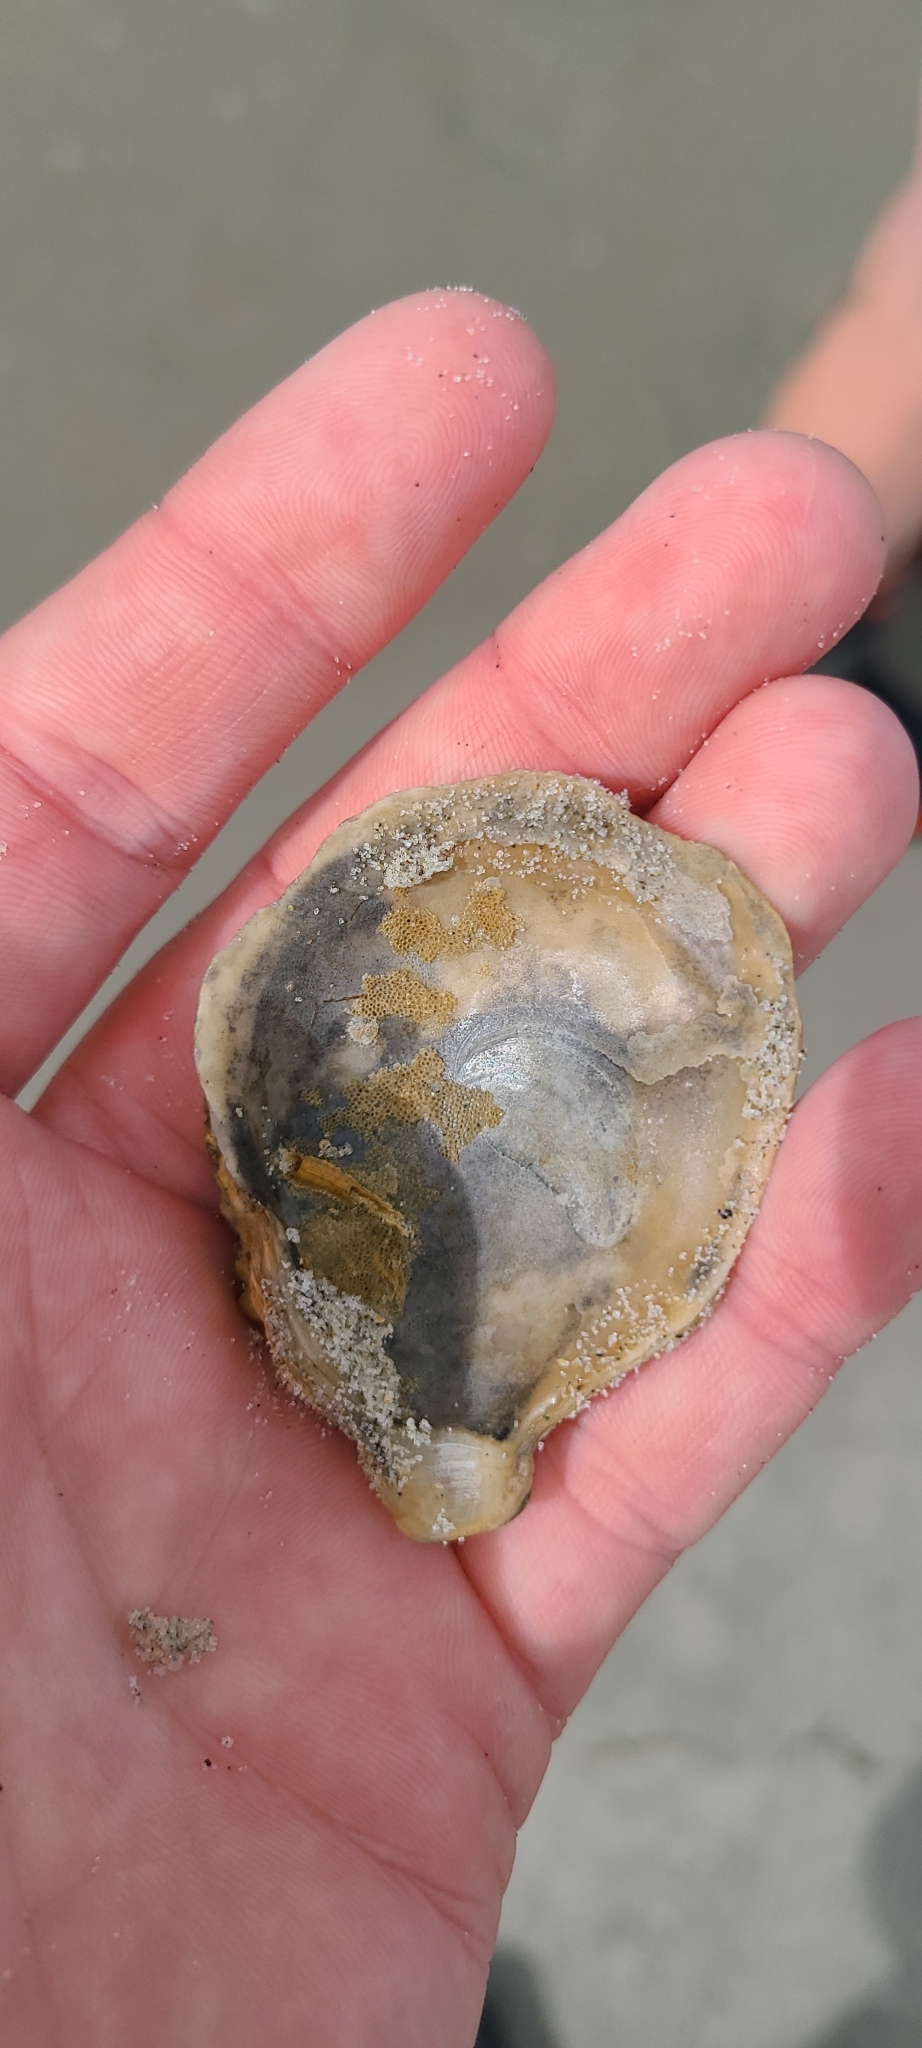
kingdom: Animalia
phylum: Mollusca
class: Bivalvia
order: Ostreida
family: Ostreidae
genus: Ostrea
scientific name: Ostrea chilensis
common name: Chilean oyster
